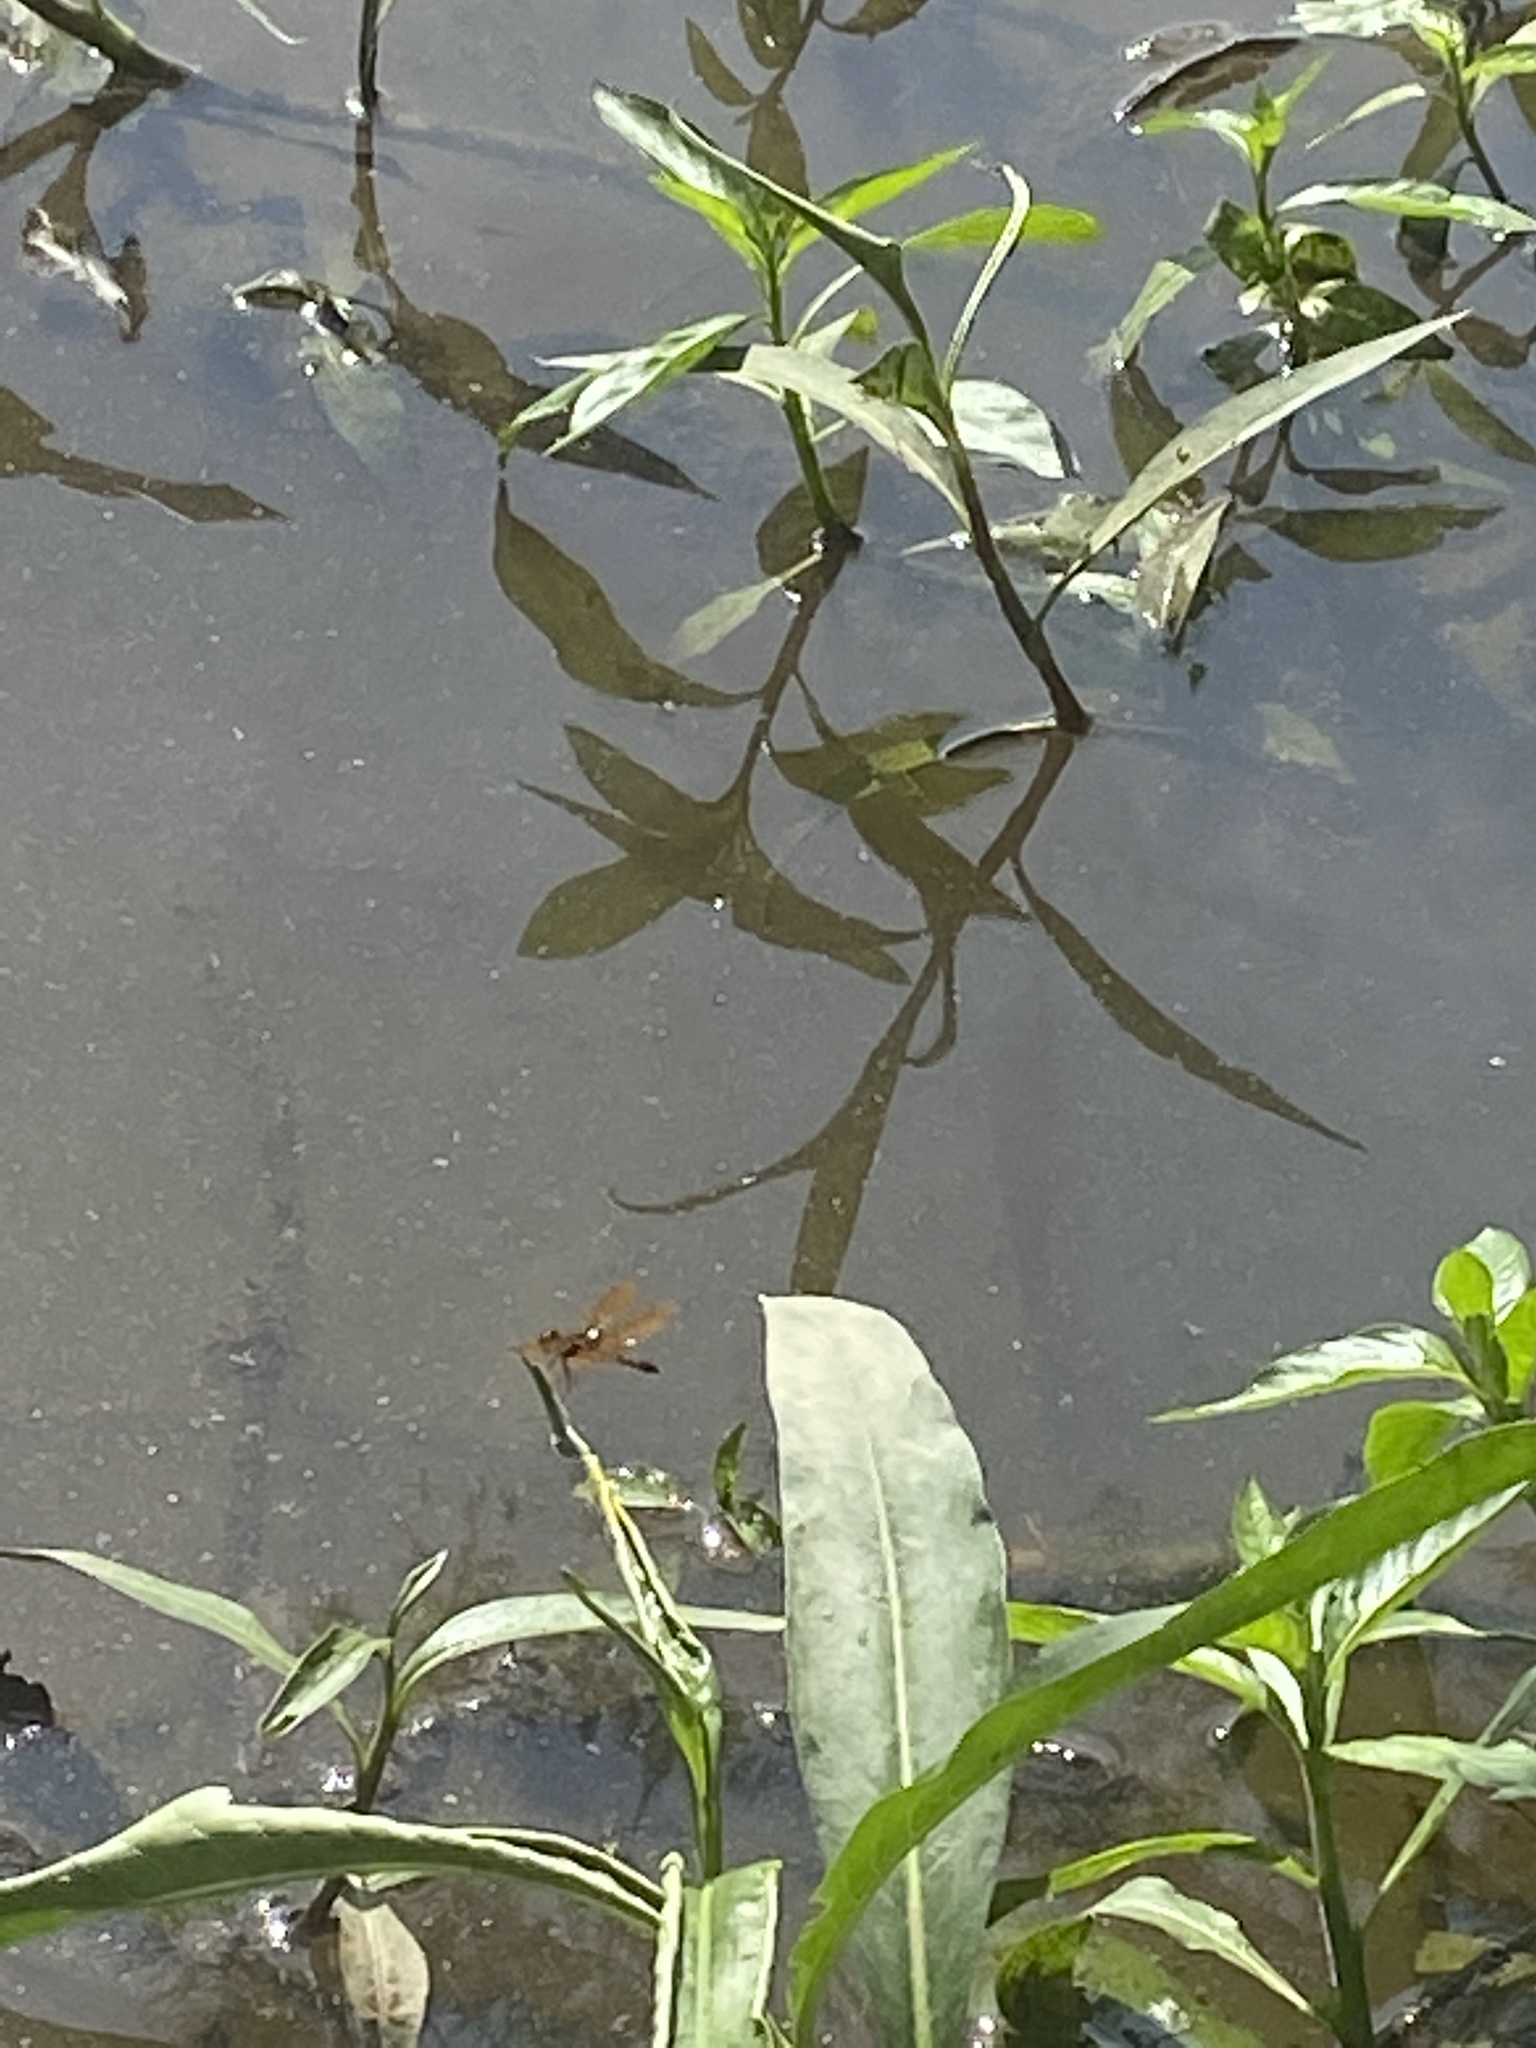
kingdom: Animalia
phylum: Arthropoda
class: Insecta
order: Odonata
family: Libellulidae
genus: Perithemis
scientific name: Perithemis tenera
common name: Eastern amberwing
